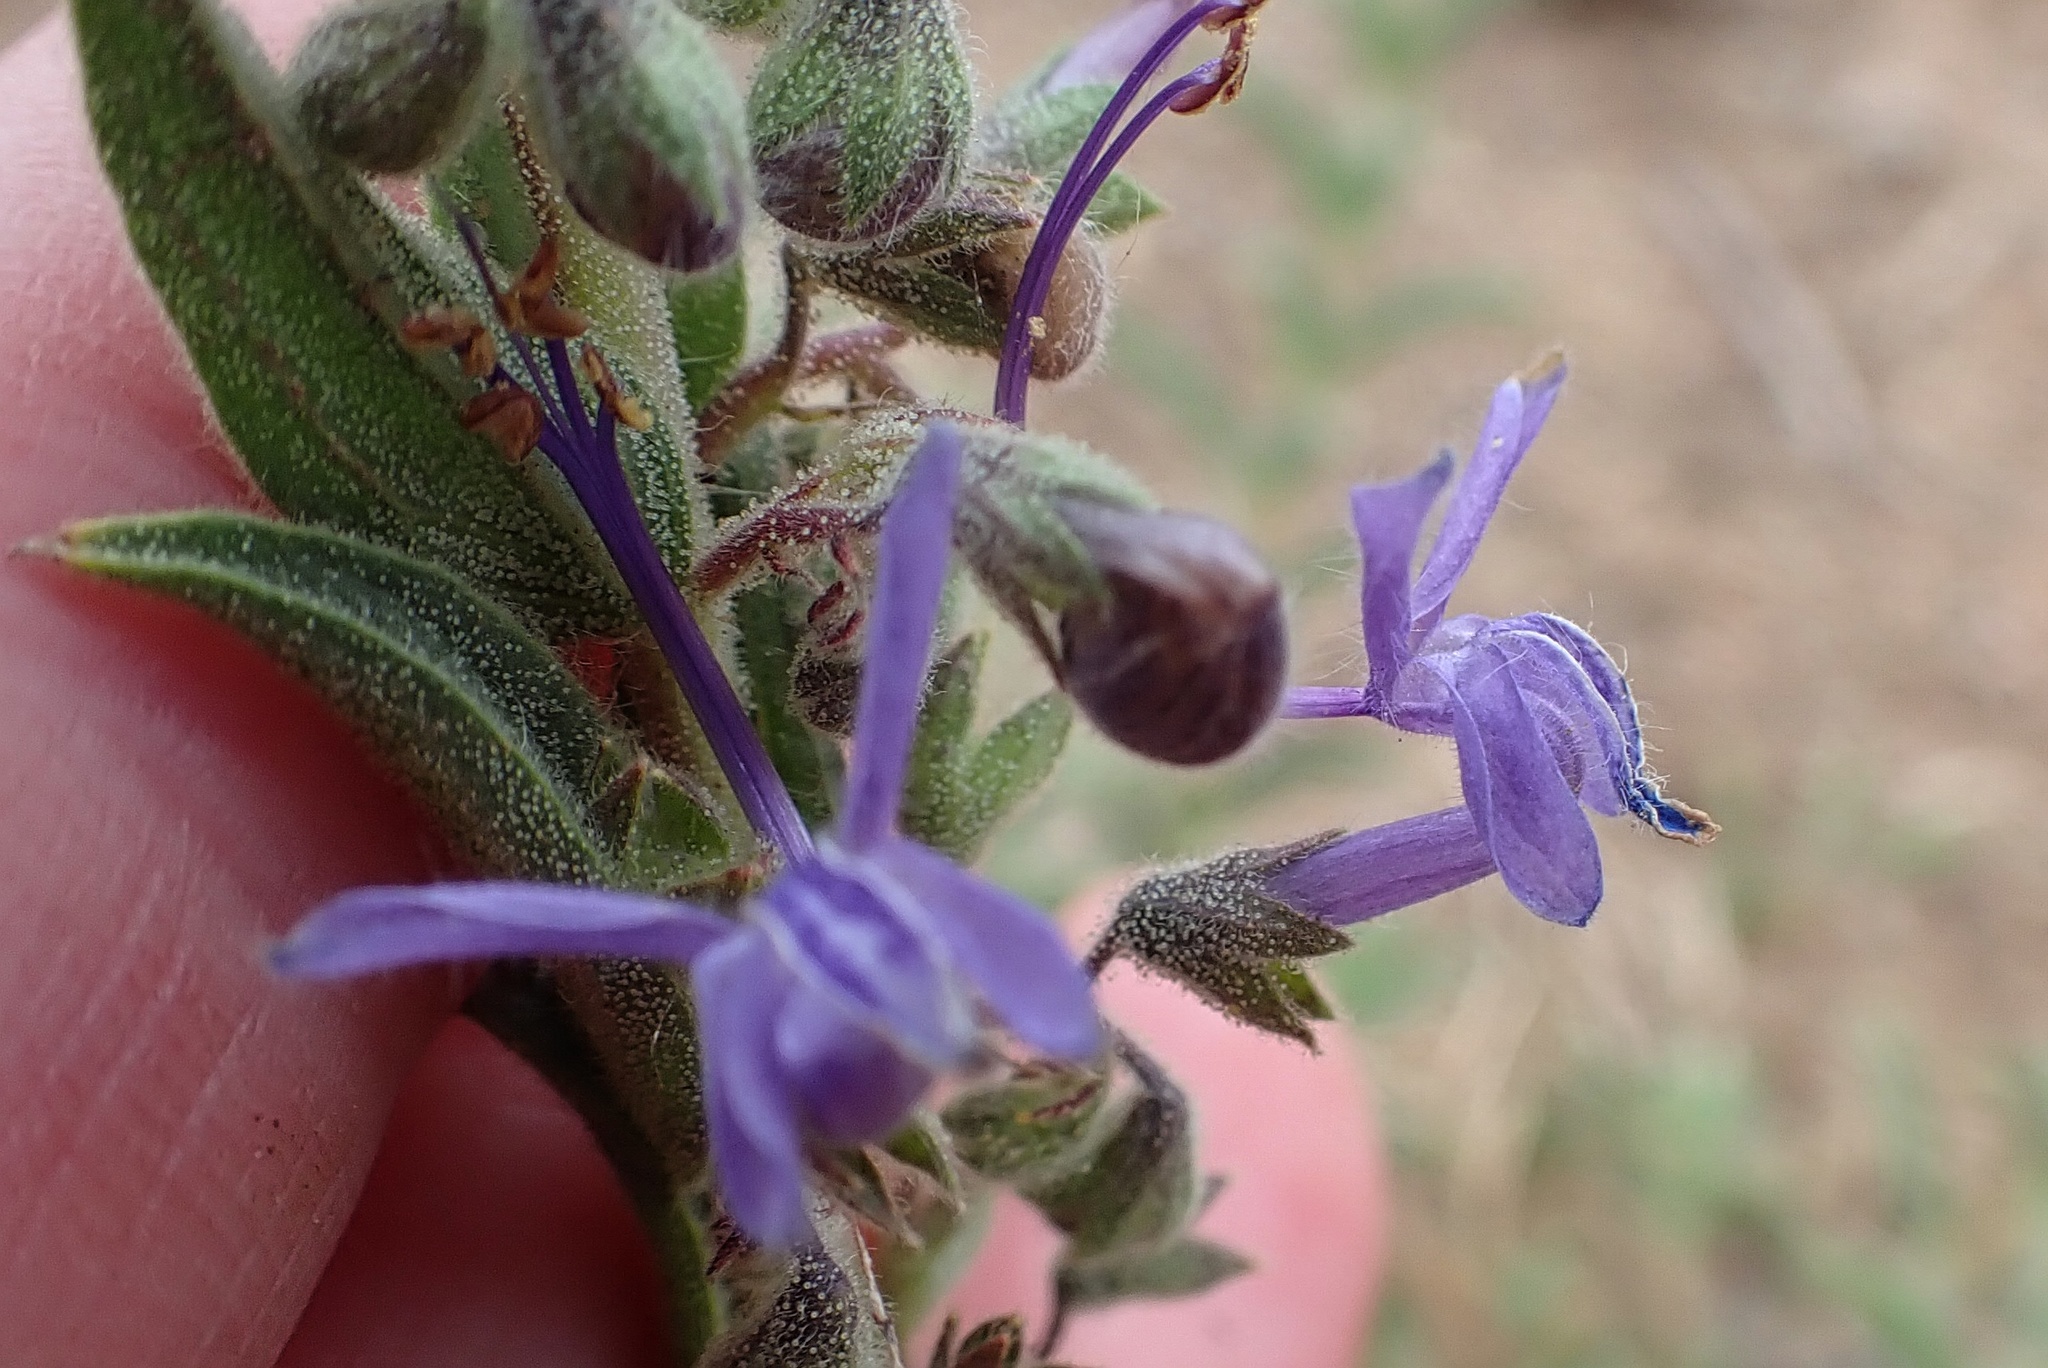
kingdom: Plantae
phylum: Tracheophyta
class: Magnoliopsida
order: Lamiales
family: Lamiaceae
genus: Trichostema
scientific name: Trichostema lanceolatum
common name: Vinegar-weed
